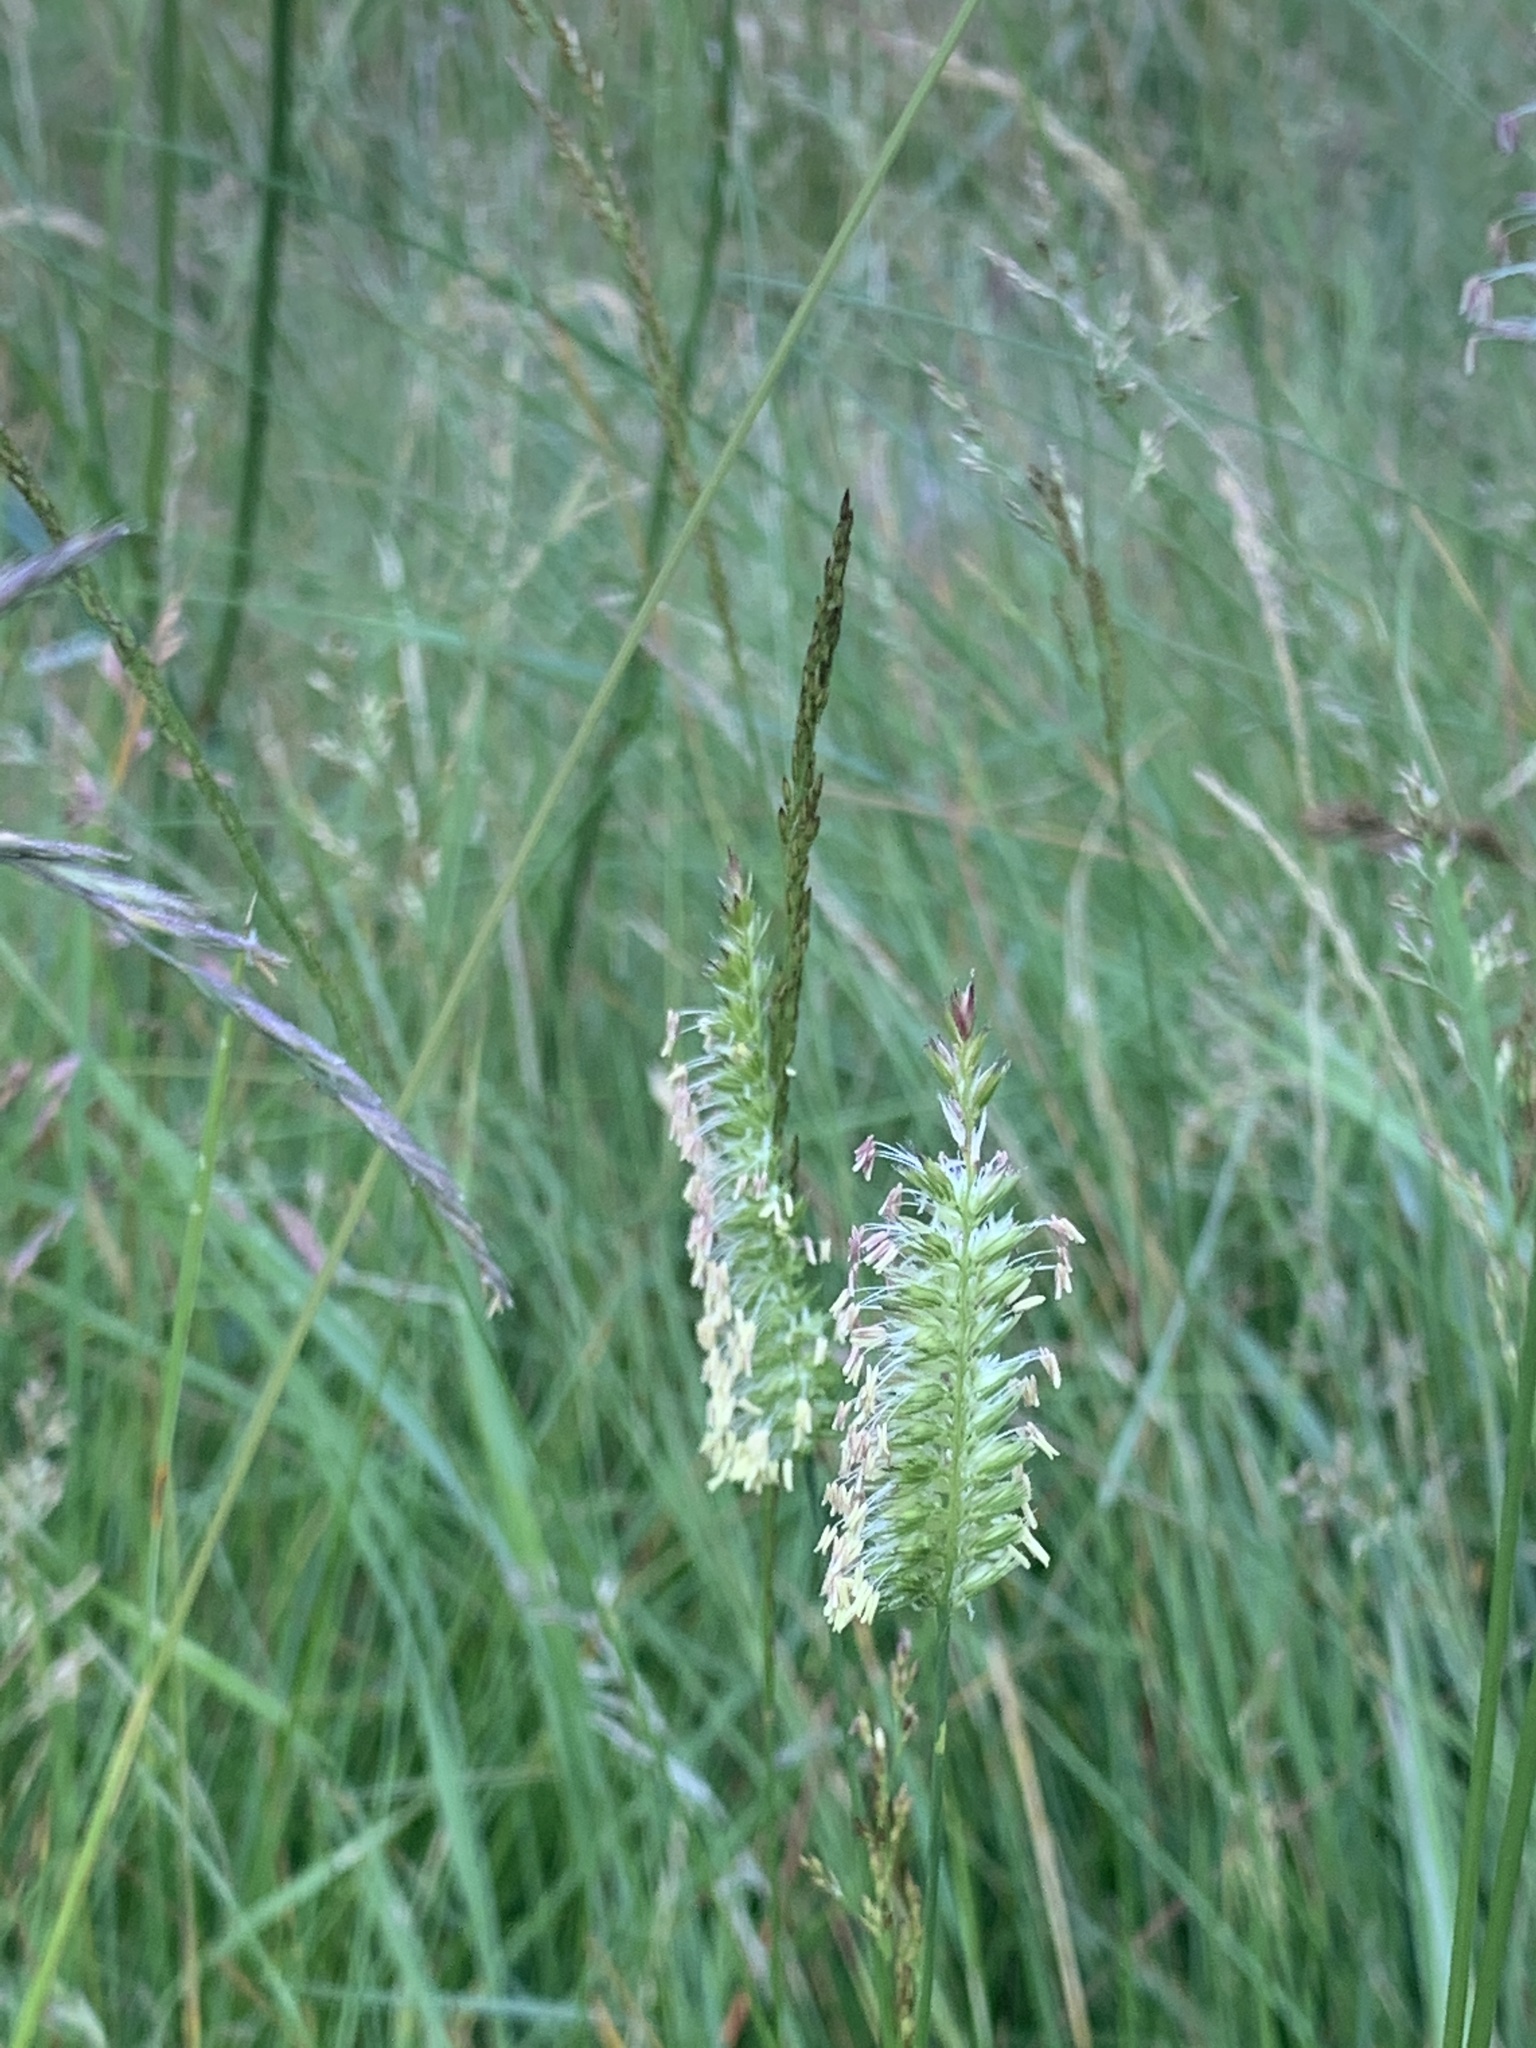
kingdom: Plantae
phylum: Tracheophyta
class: Liliopsida
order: Poales
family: Poaceae
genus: Cynosurus
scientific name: Cynosurus cristatus
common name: Crested dog's-tail
